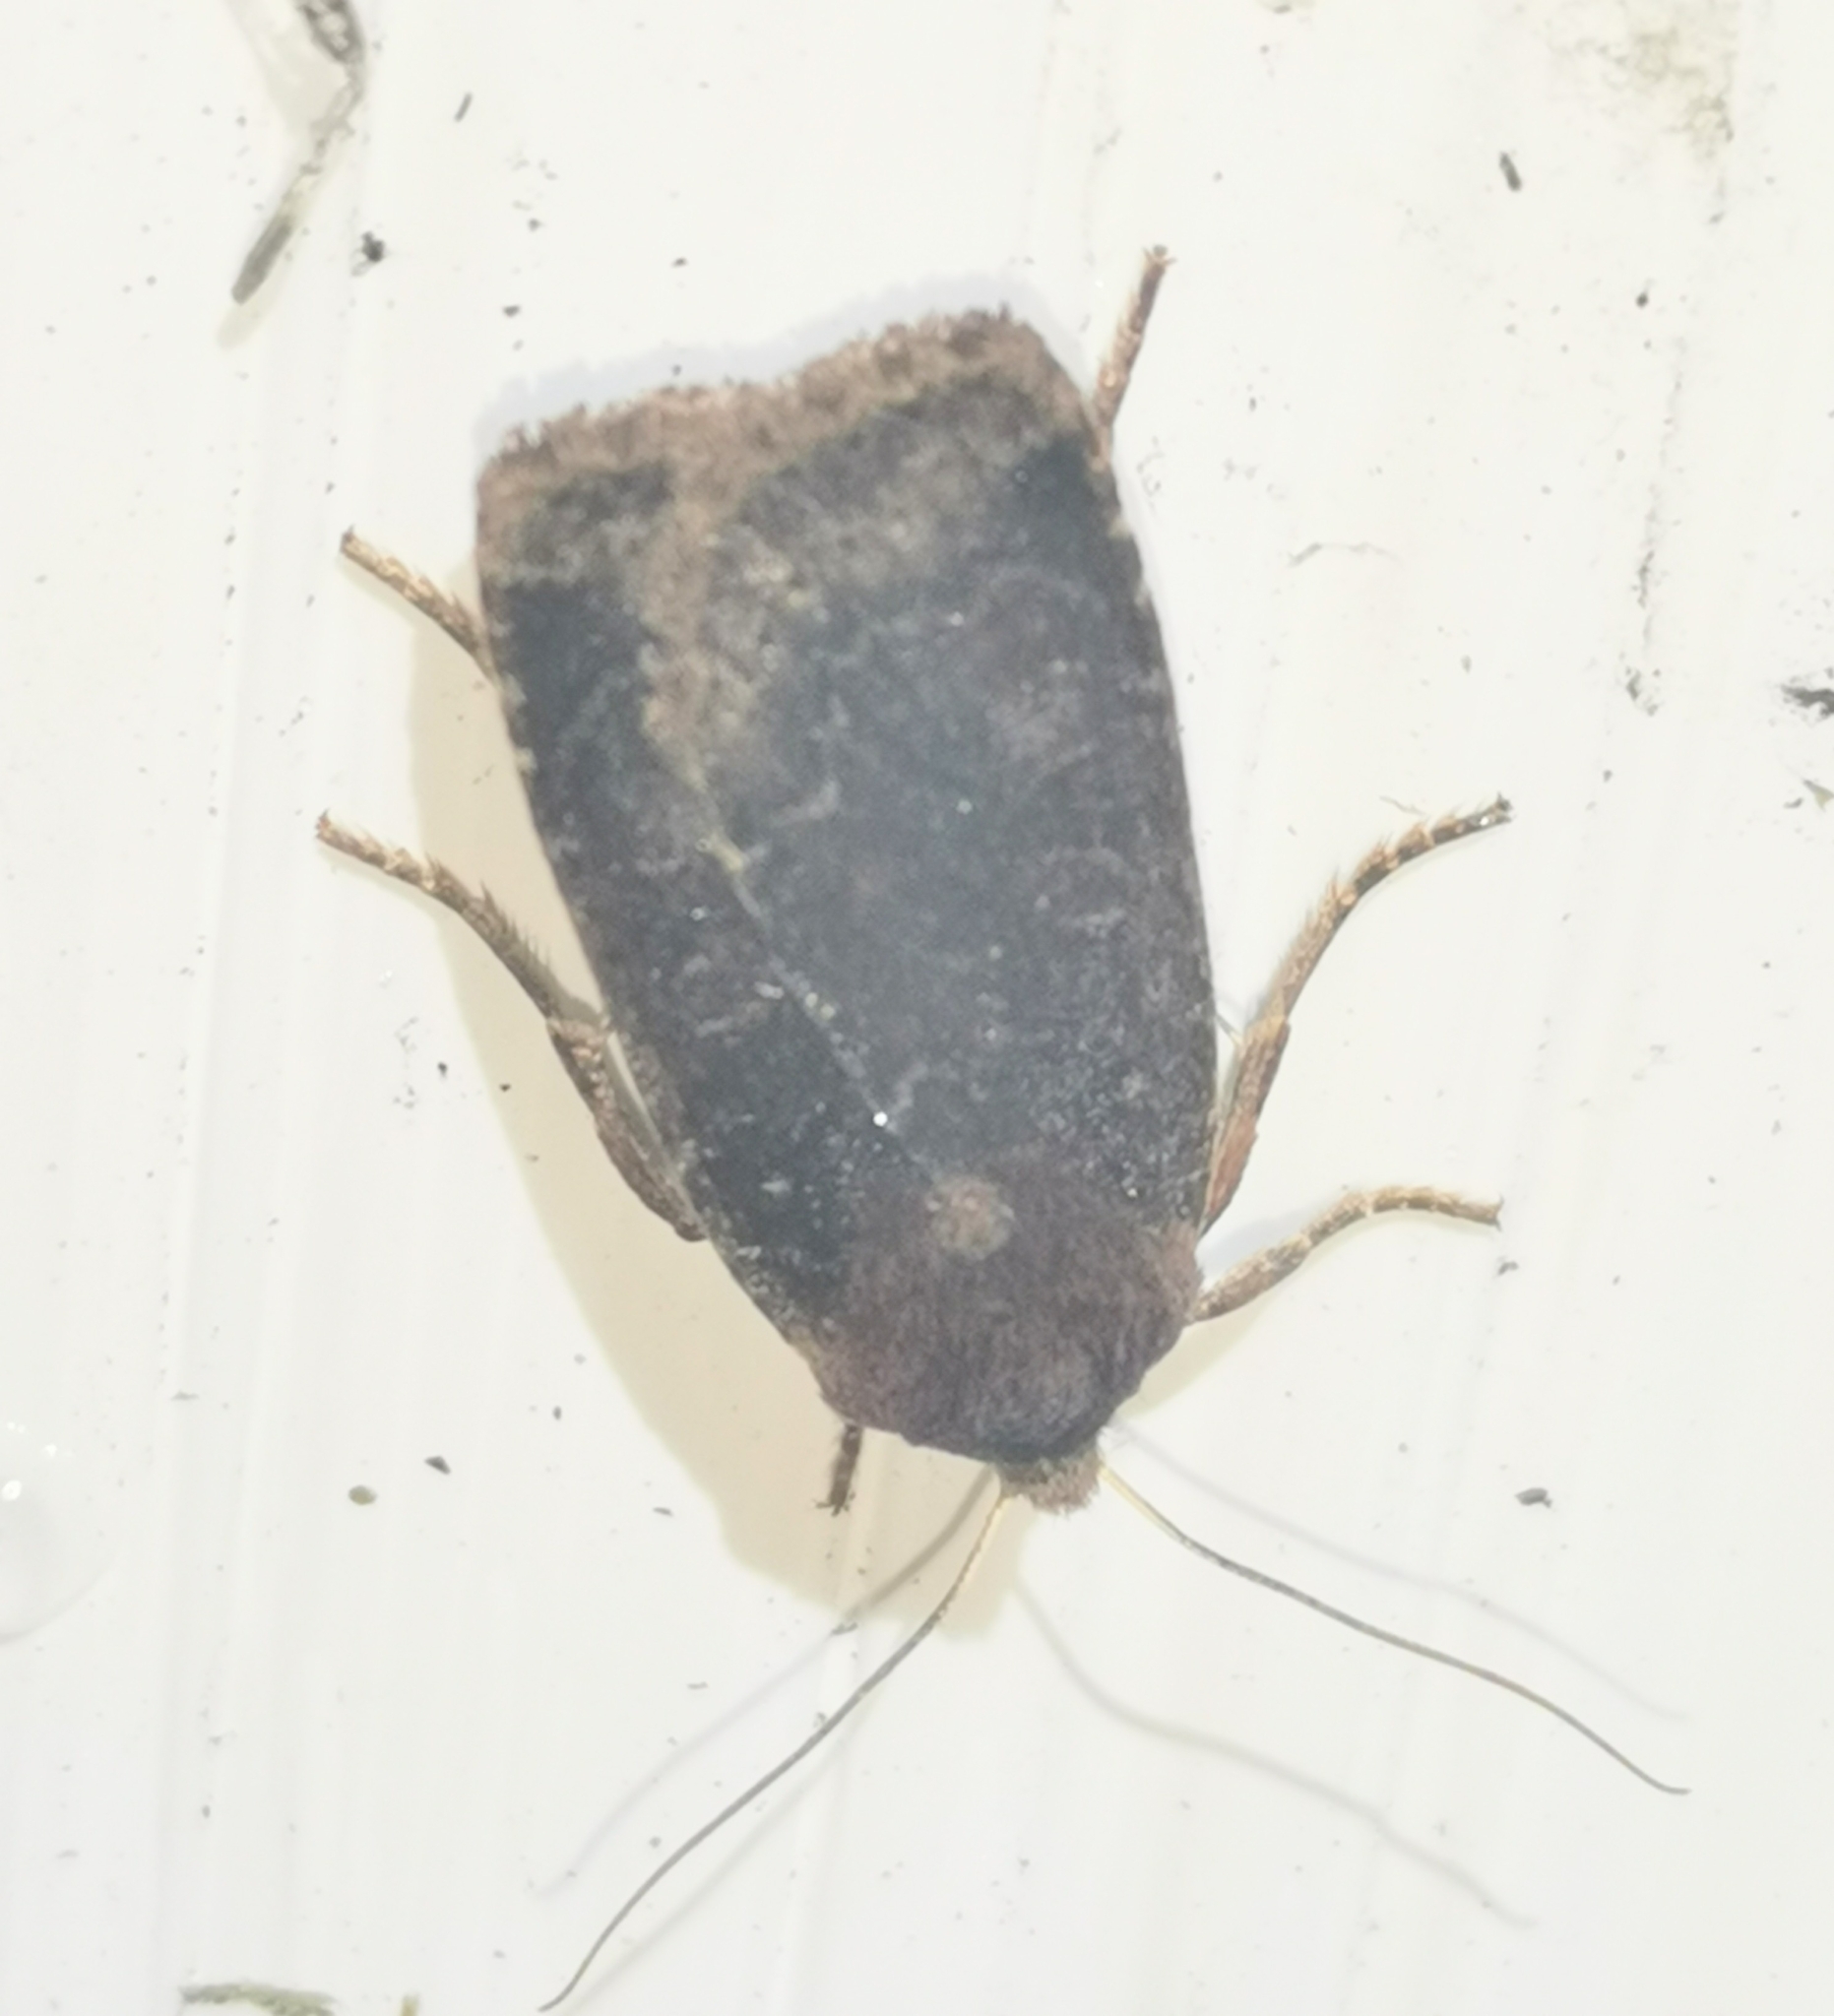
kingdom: Animalia
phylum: Arthropoda
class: Insecta
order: Lepidoptera
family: Noctuidae
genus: Conistra
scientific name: Conistra vaccinii
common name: Chestnut
